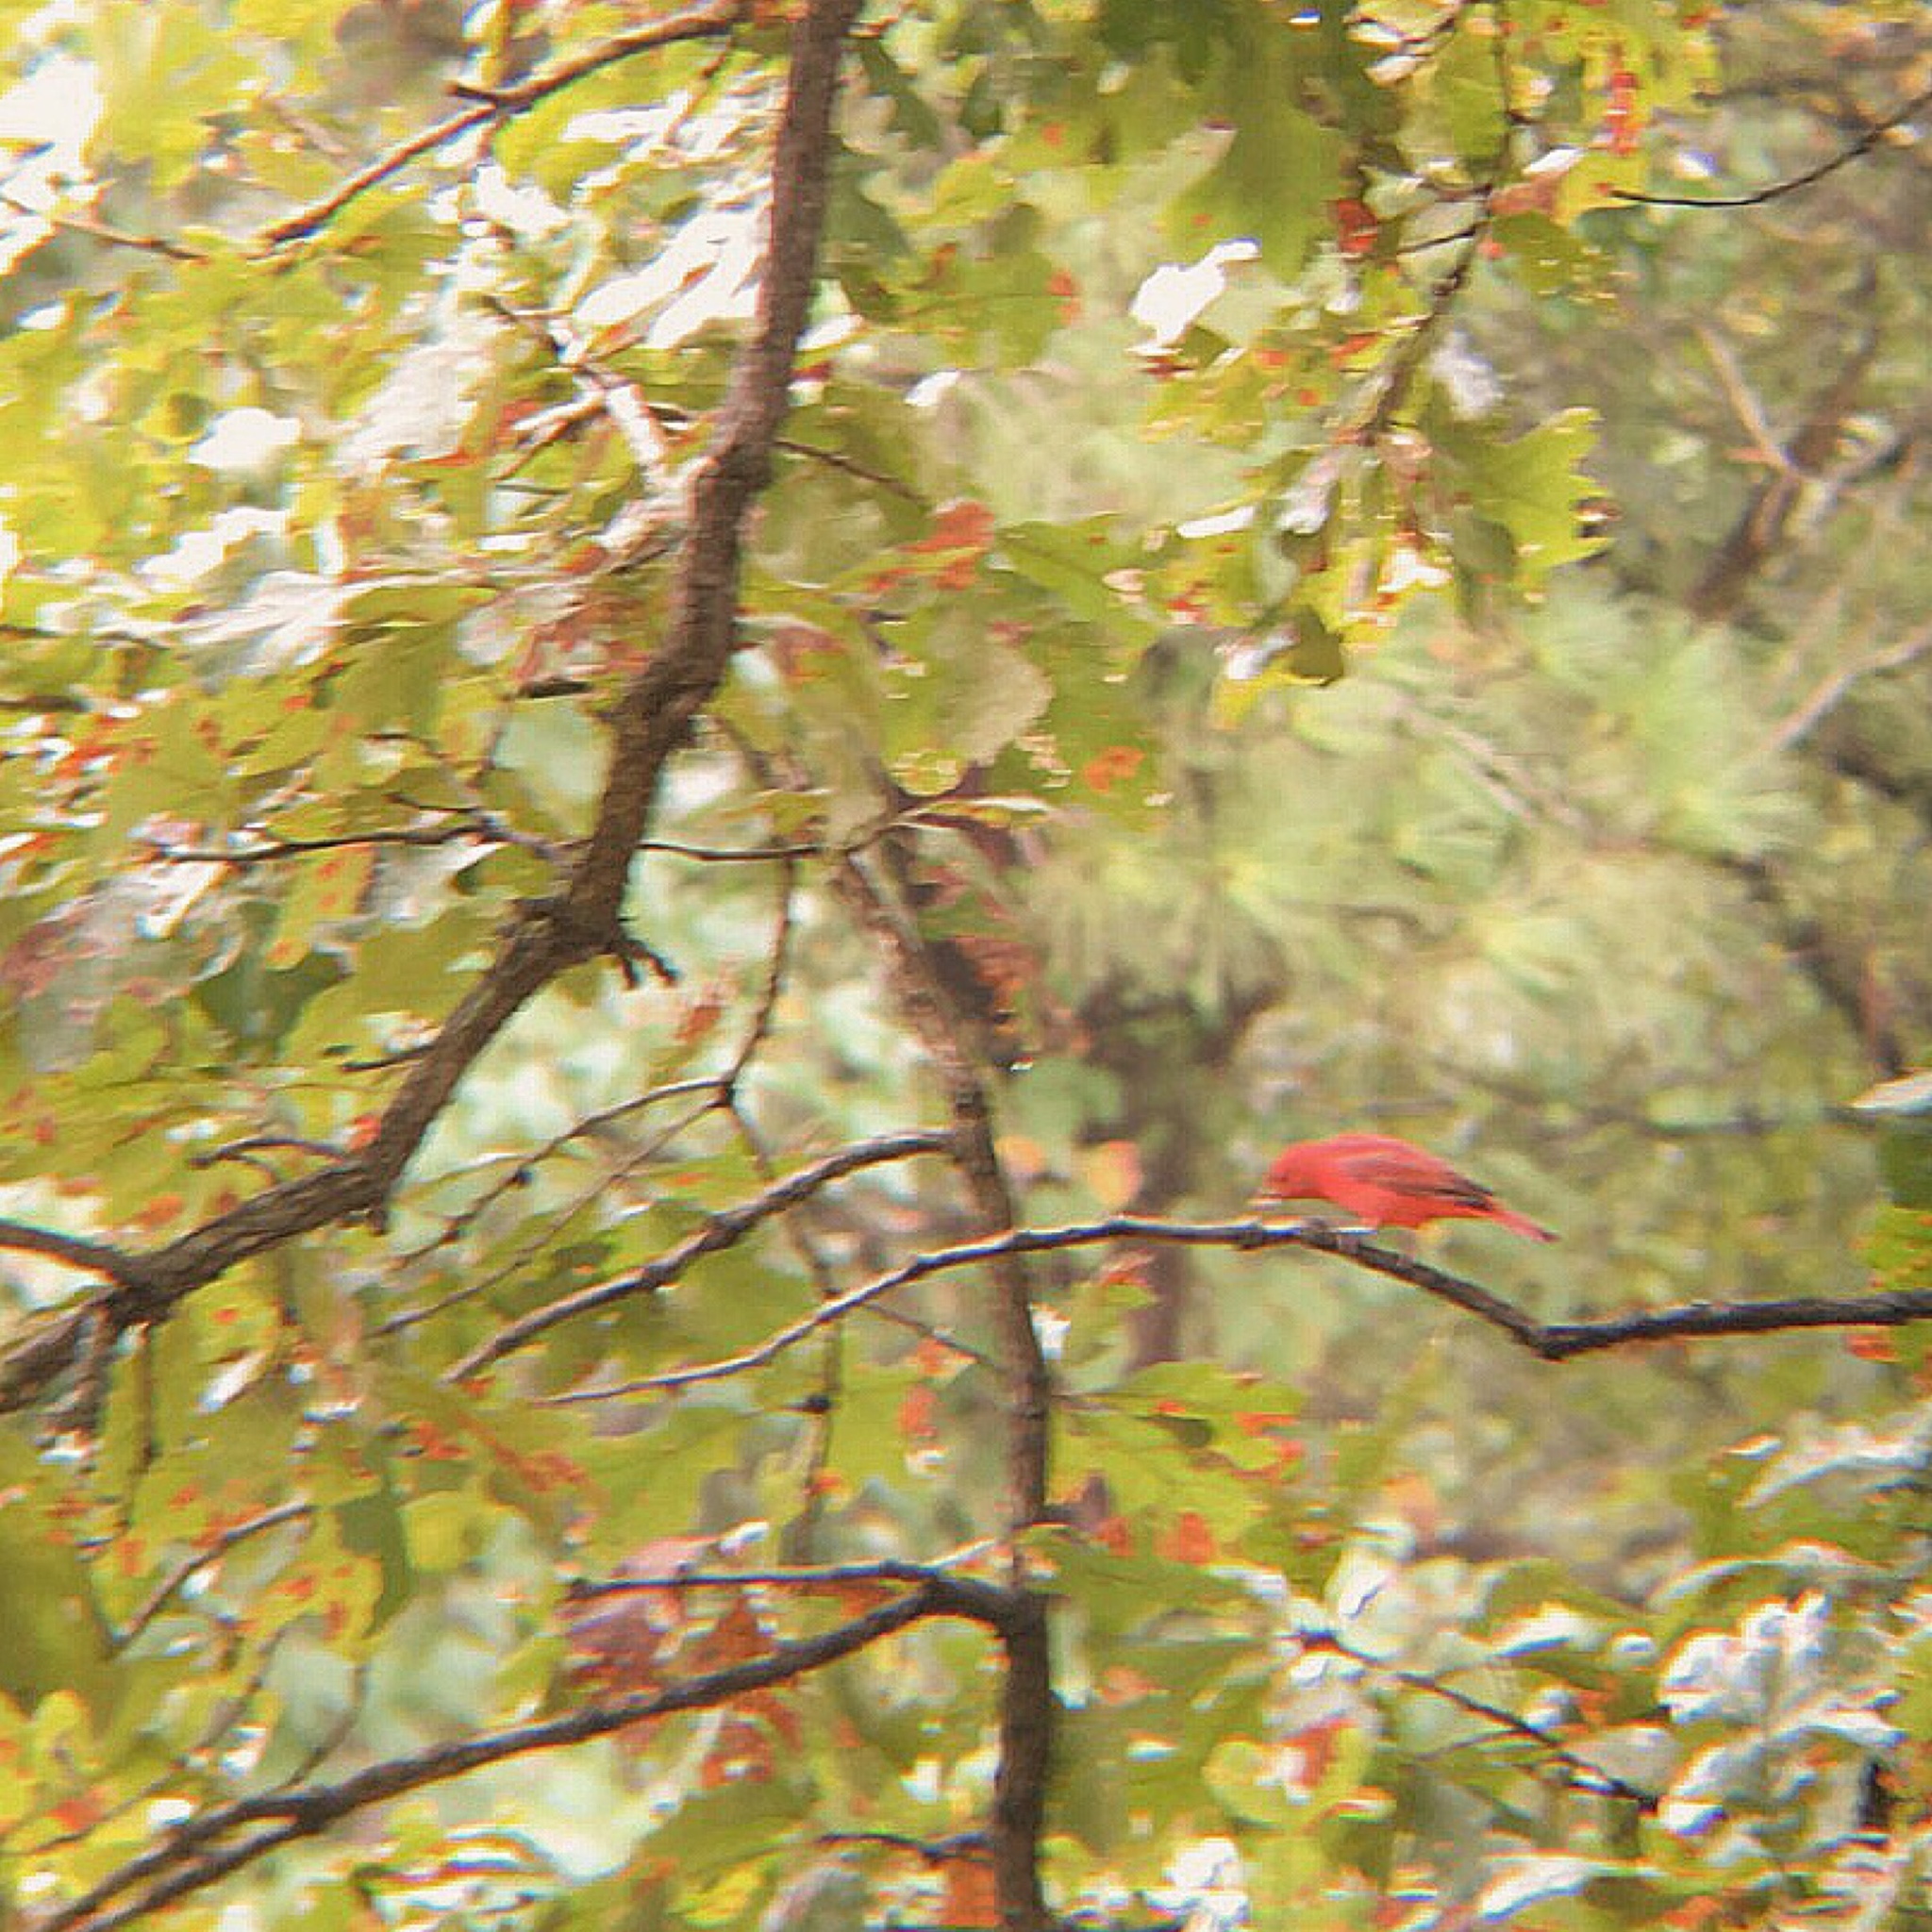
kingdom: Animalia
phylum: Chordata
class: Aves
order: Passeriformes
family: Cardinalidae
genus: Piranga
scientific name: Piranga rubra
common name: Summer tanager
